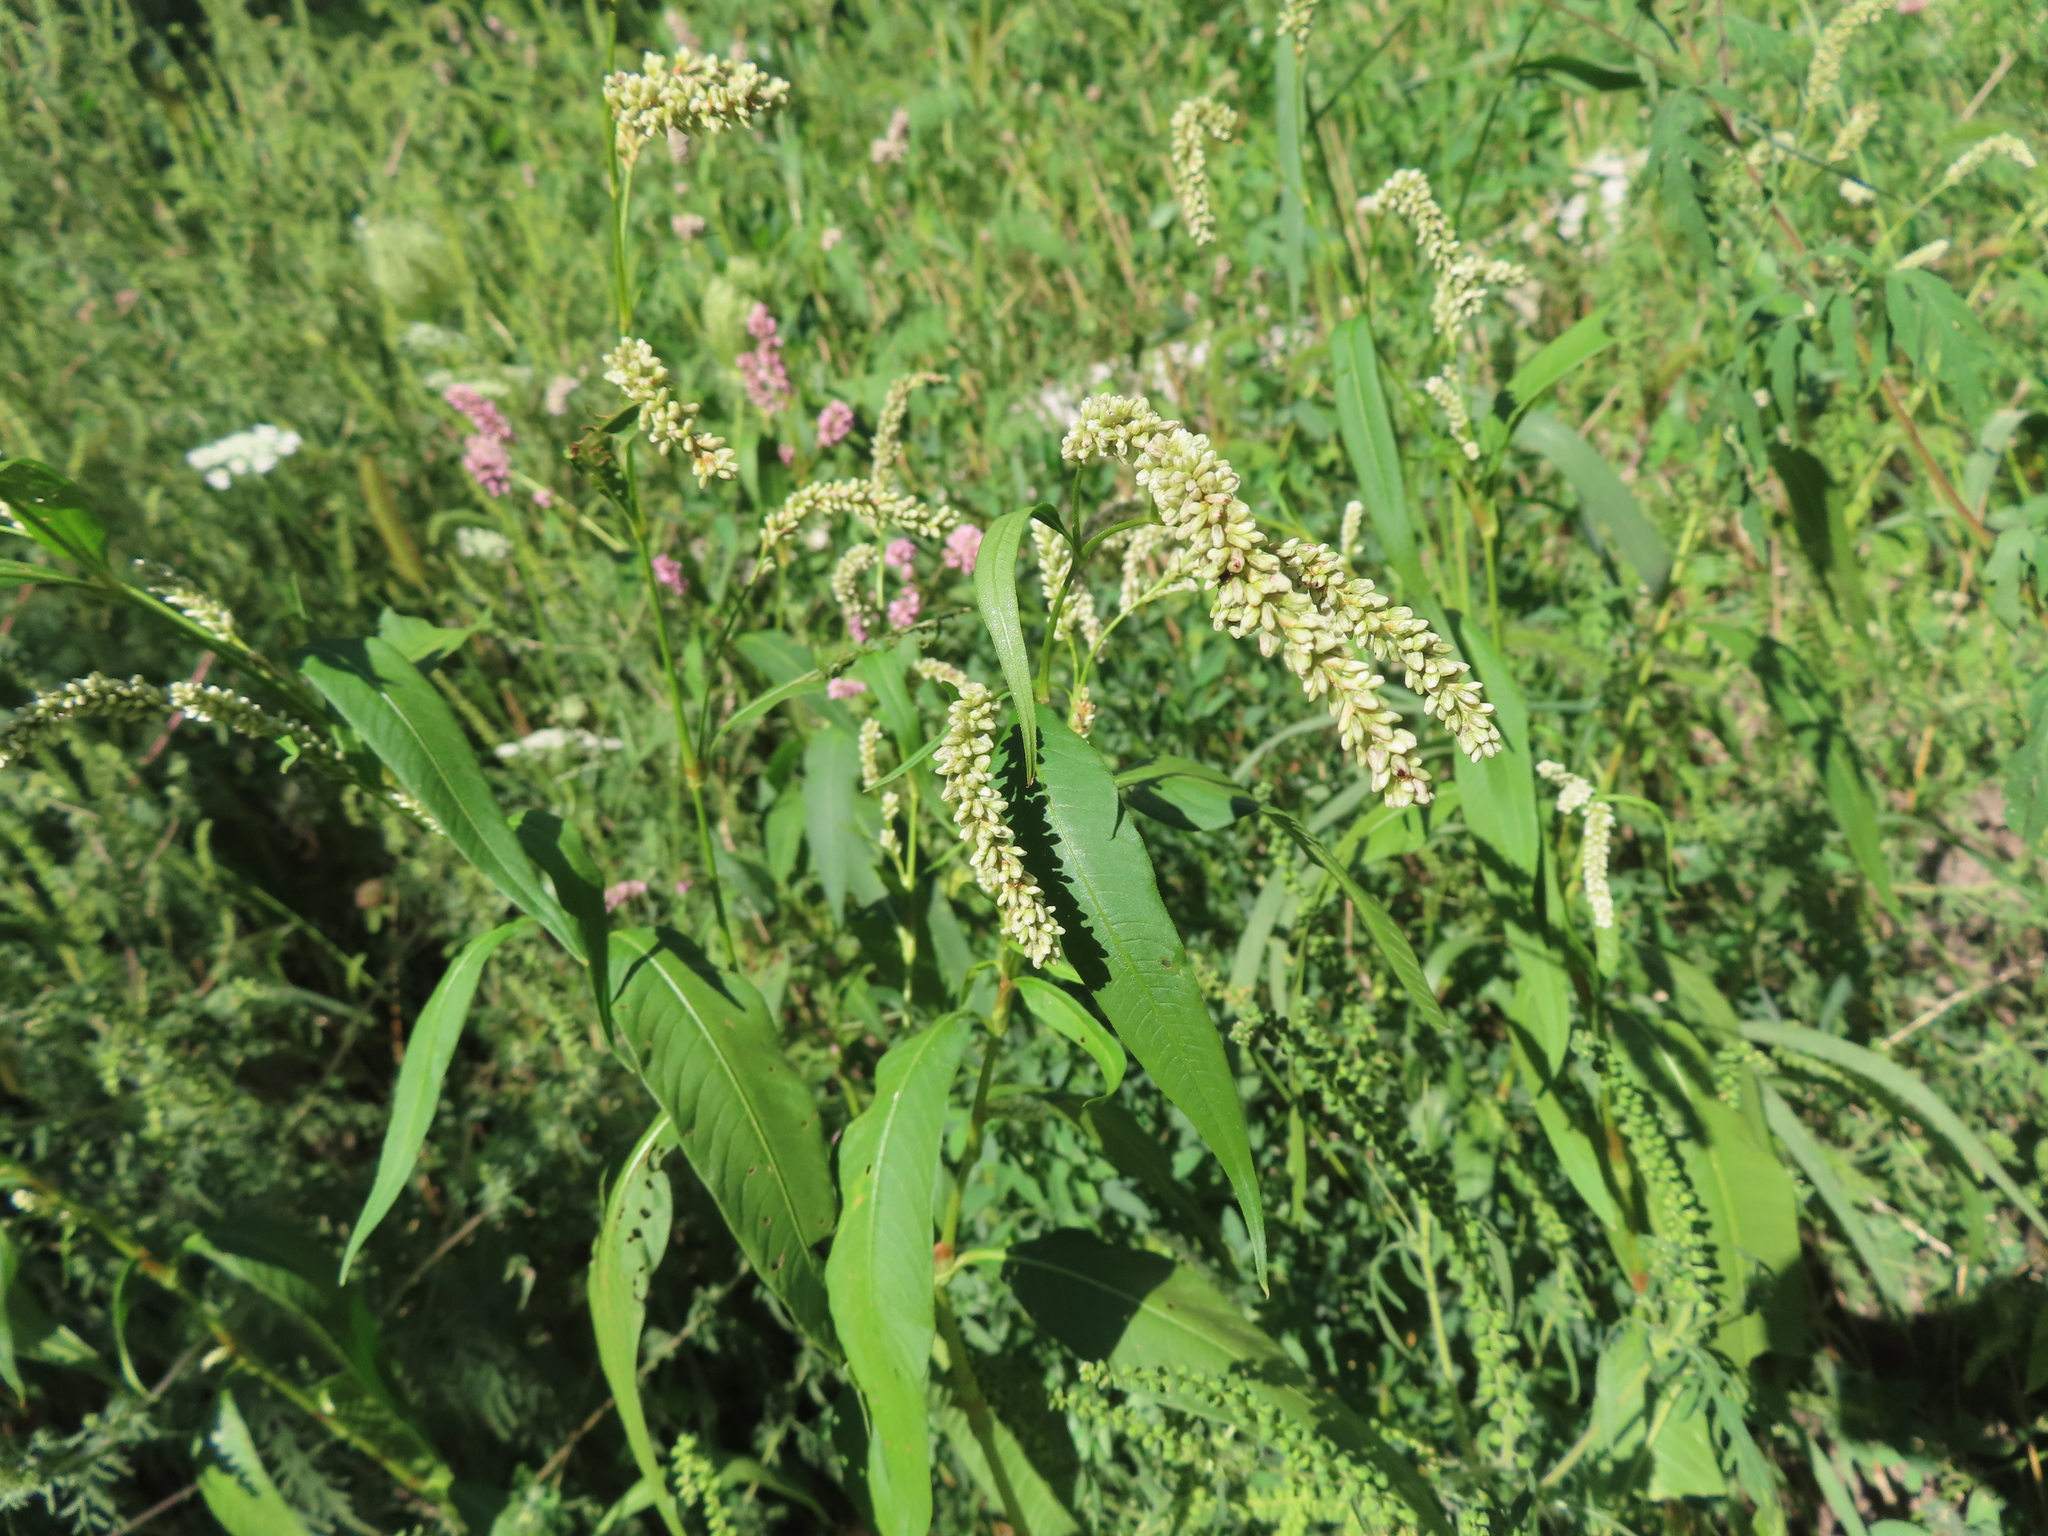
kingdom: Plantae
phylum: Tracheophyta
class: Magnoliopsida
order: Caryophyllales
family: Polygonaceae
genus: Persicaria
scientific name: Persicaria lapathifolia
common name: Curlytop knotweed
